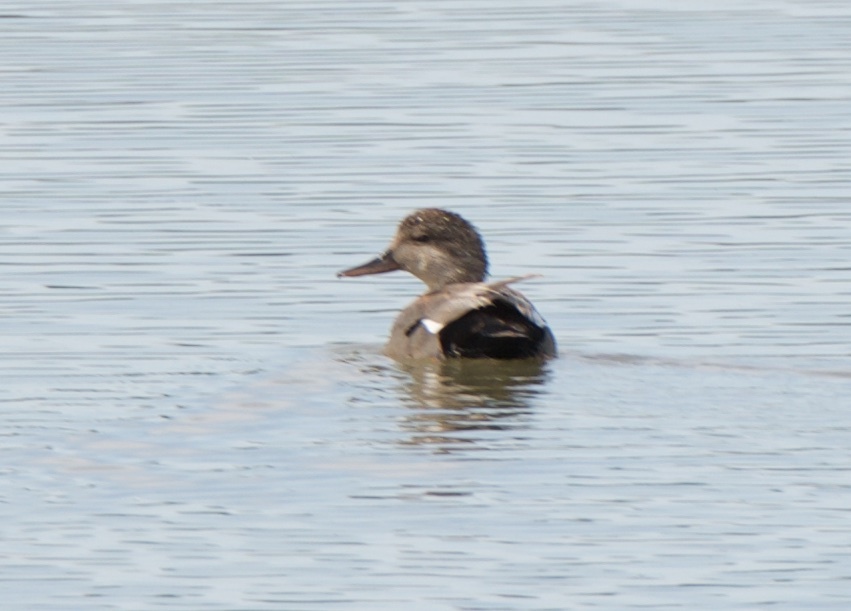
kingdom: Animalia
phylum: Chordata
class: Aves
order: Anseriformes
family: Anatidae
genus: Mareca
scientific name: Mareca strepera
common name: Gadwall
